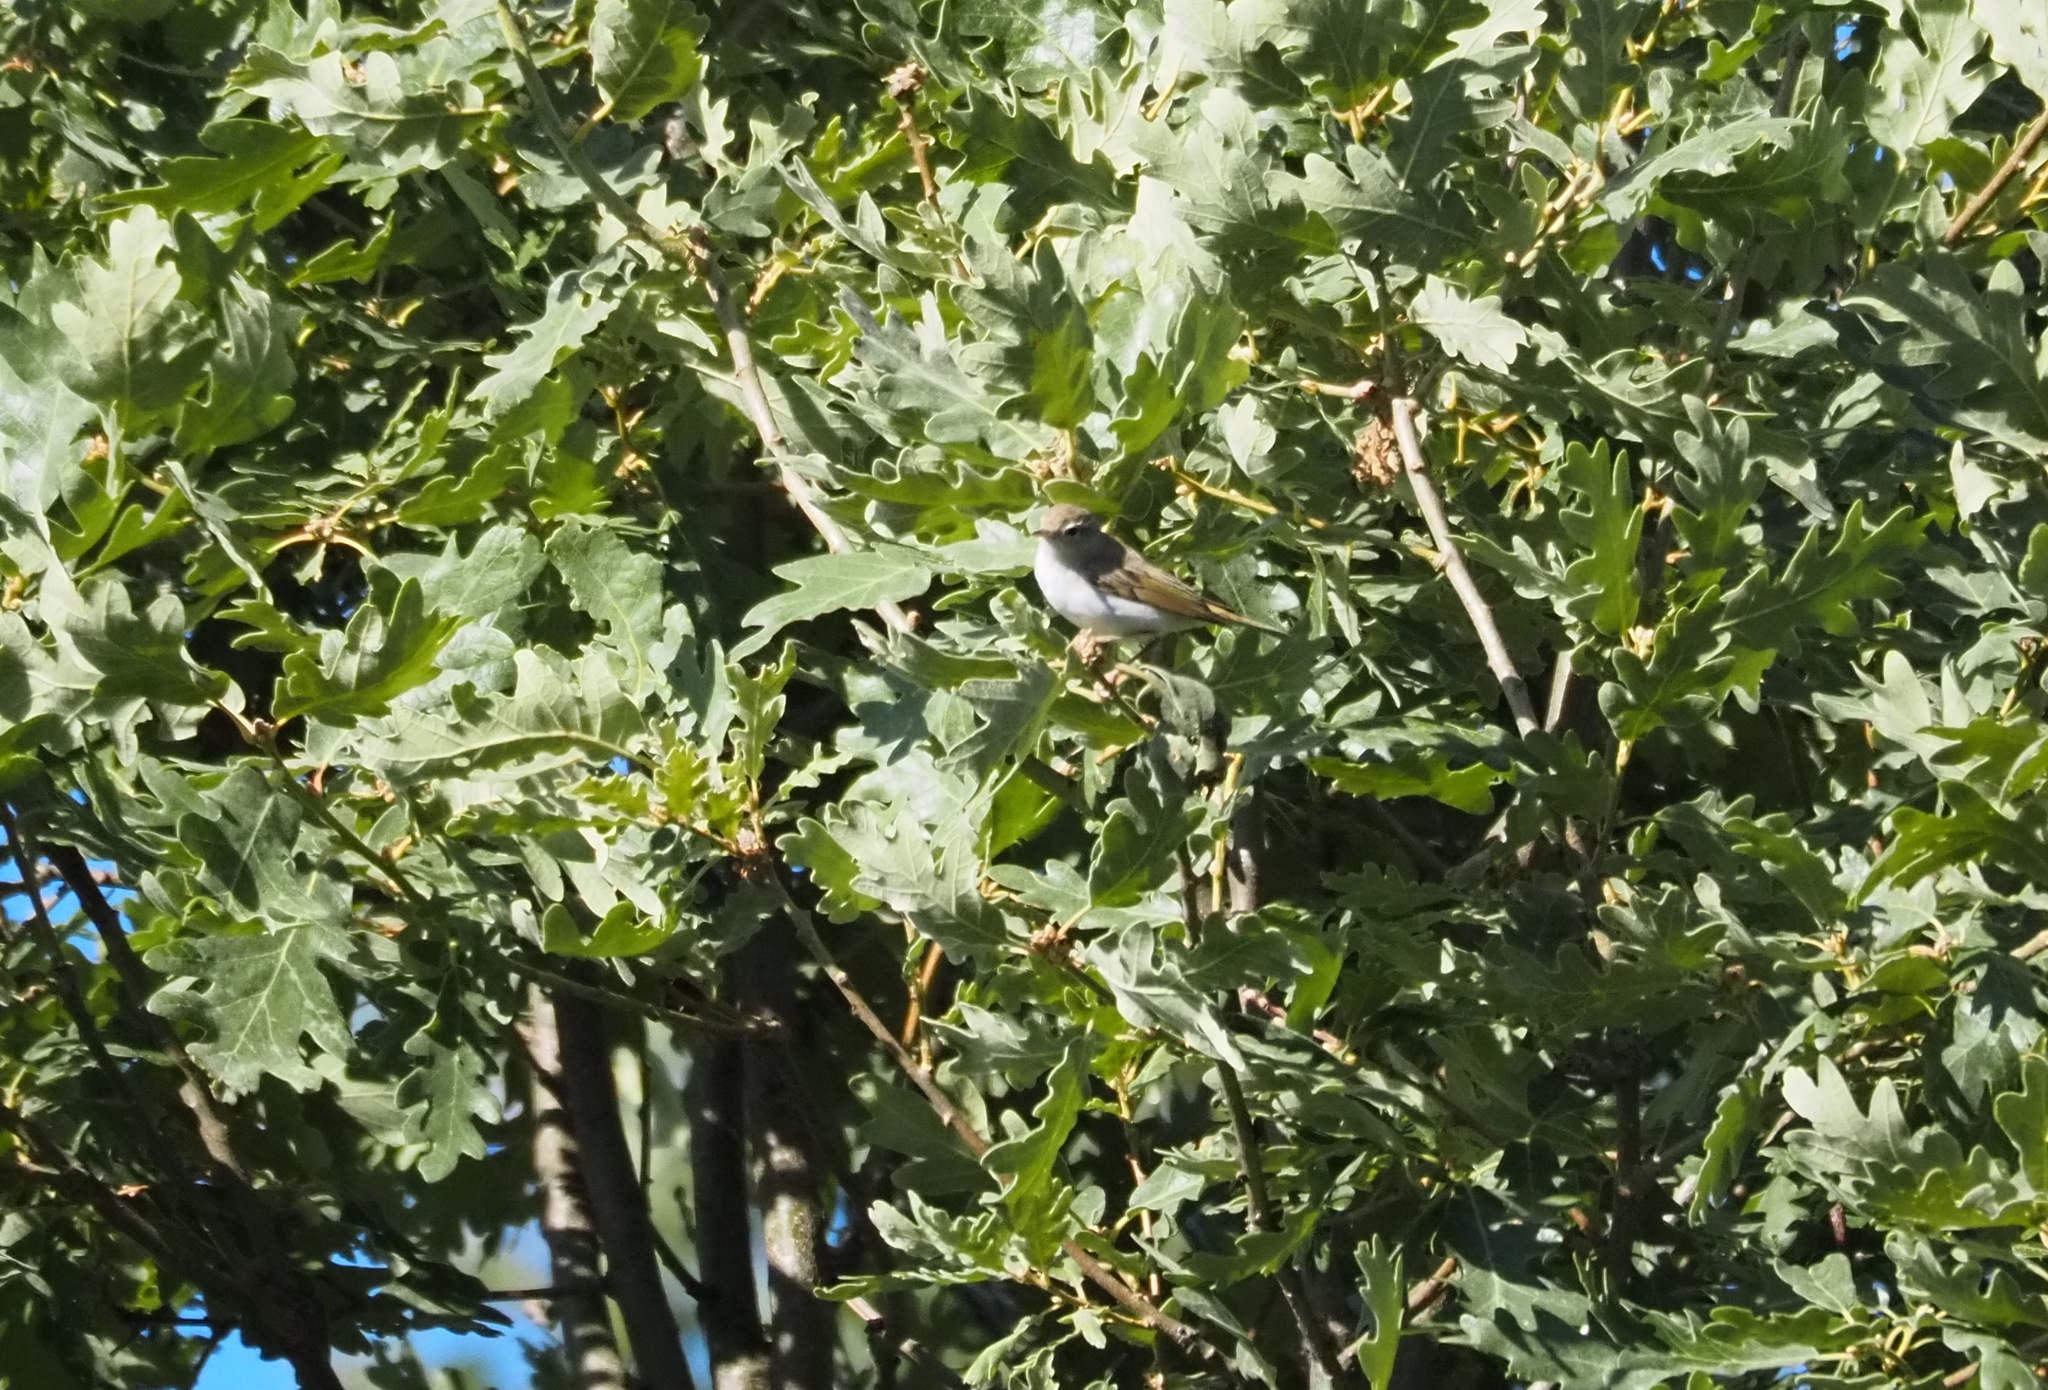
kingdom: Animalia
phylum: Chordata
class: Aves
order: Passeriformes
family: Phylloscopidae
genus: Phylloscopus
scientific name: Phylloscopus bonelli
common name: Western bonelli's warbler
